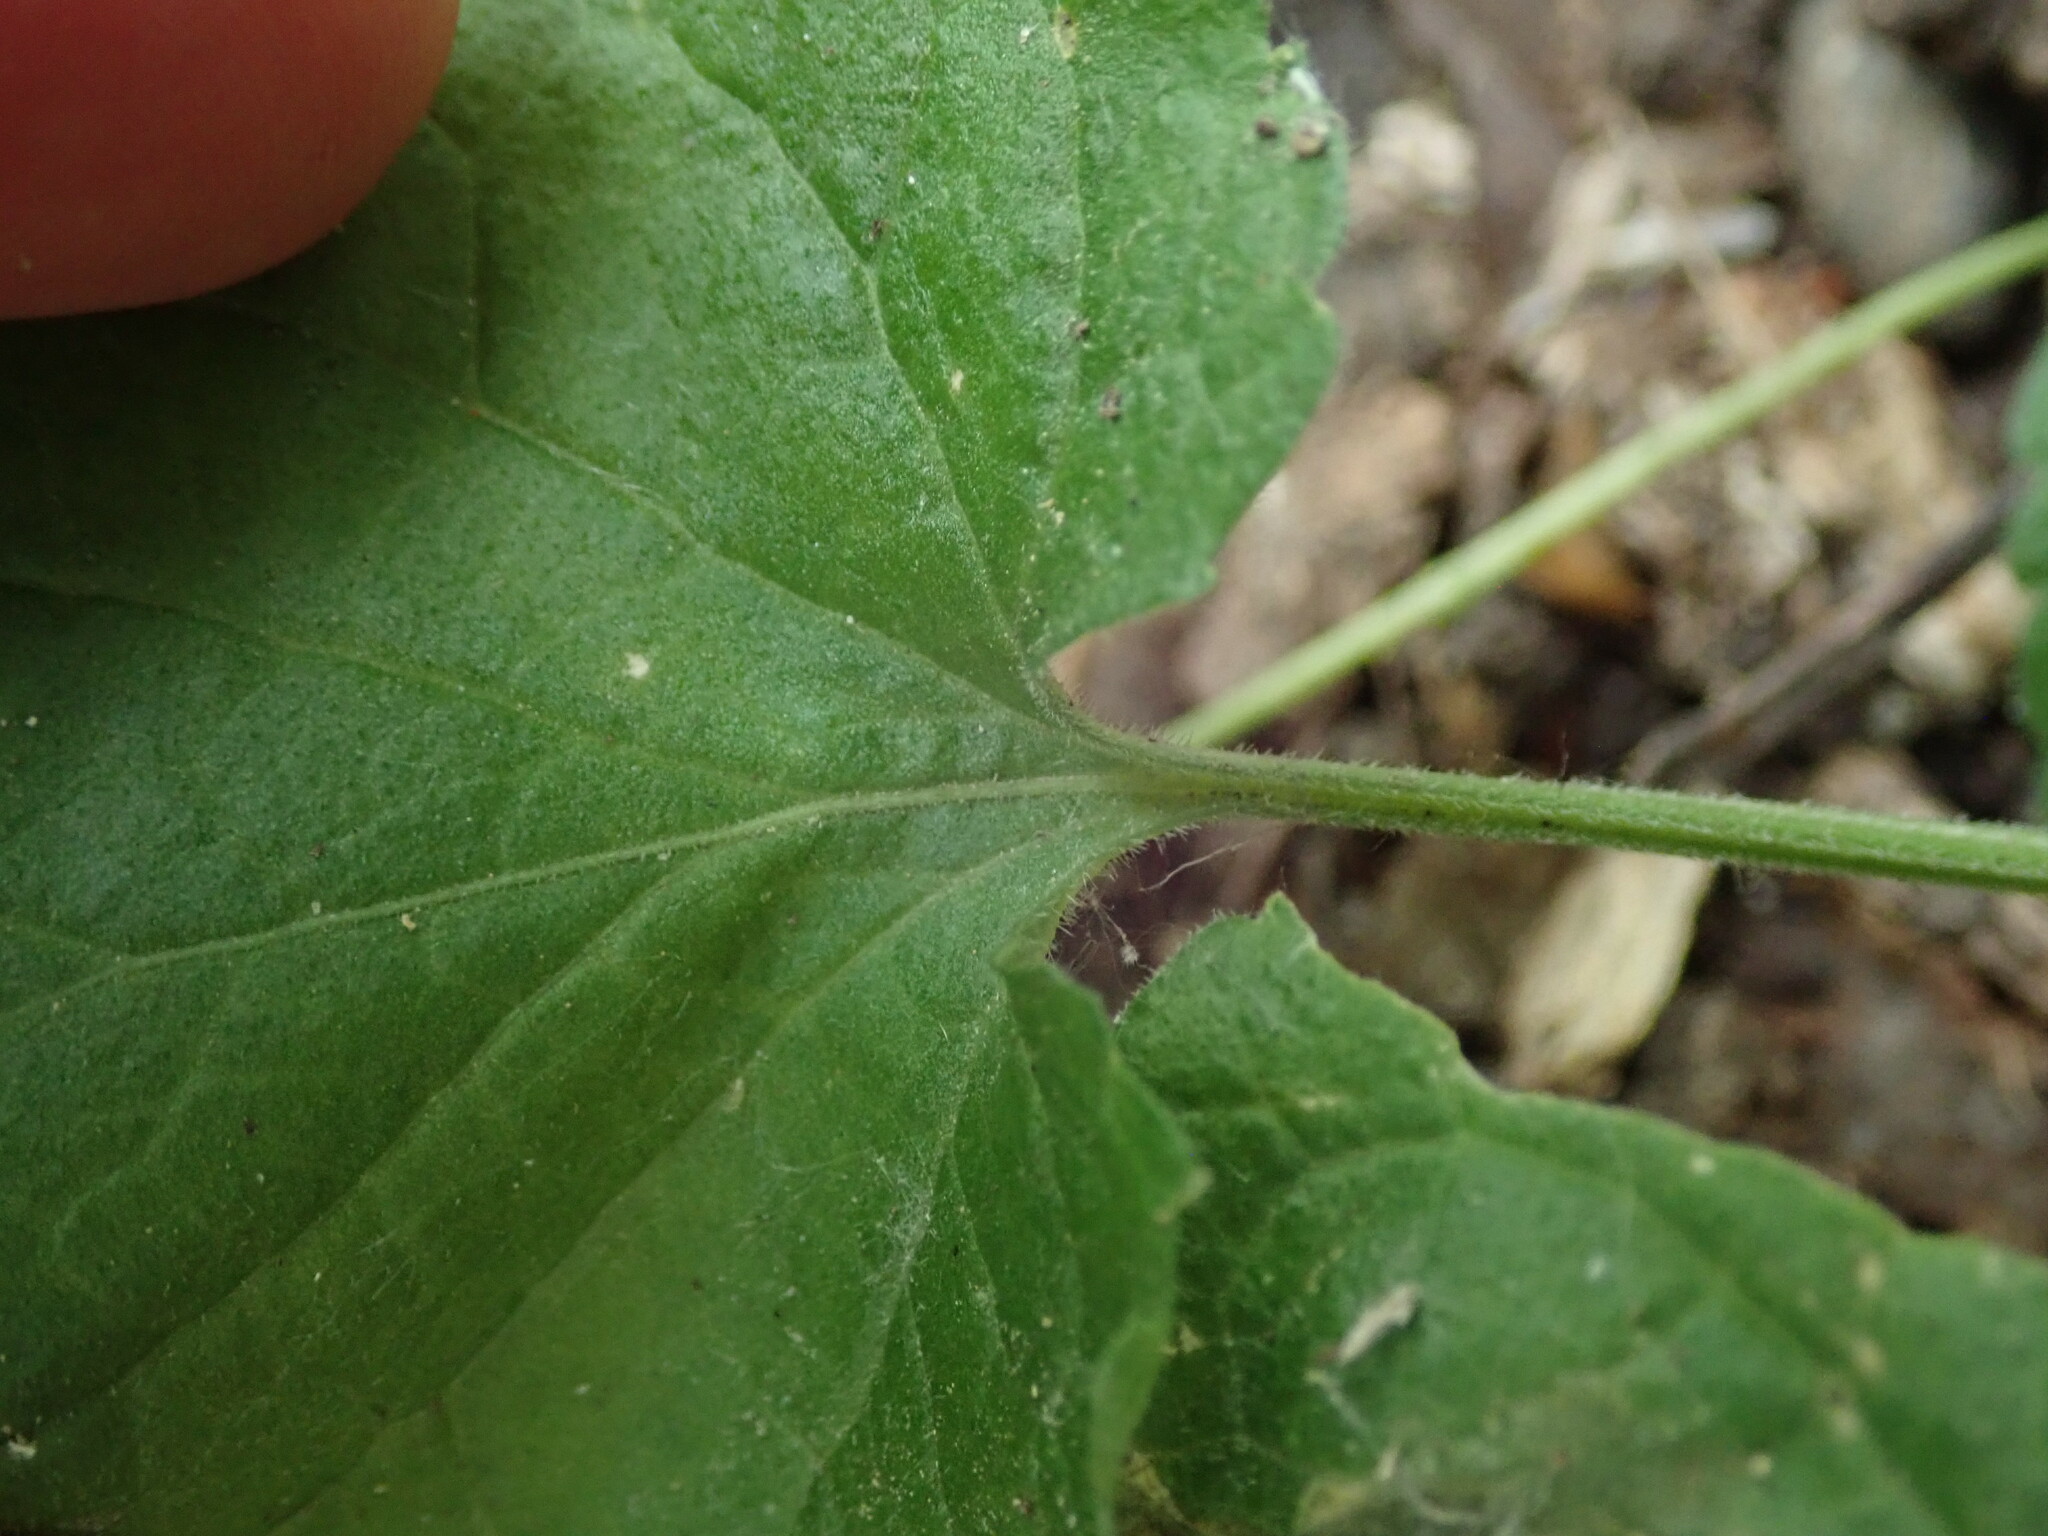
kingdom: Plantae
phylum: Tracheophyta
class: Magnoliopsida
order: Malpighiales
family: Violaceae
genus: Viola
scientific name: Viola odorata
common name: Sweet violet
